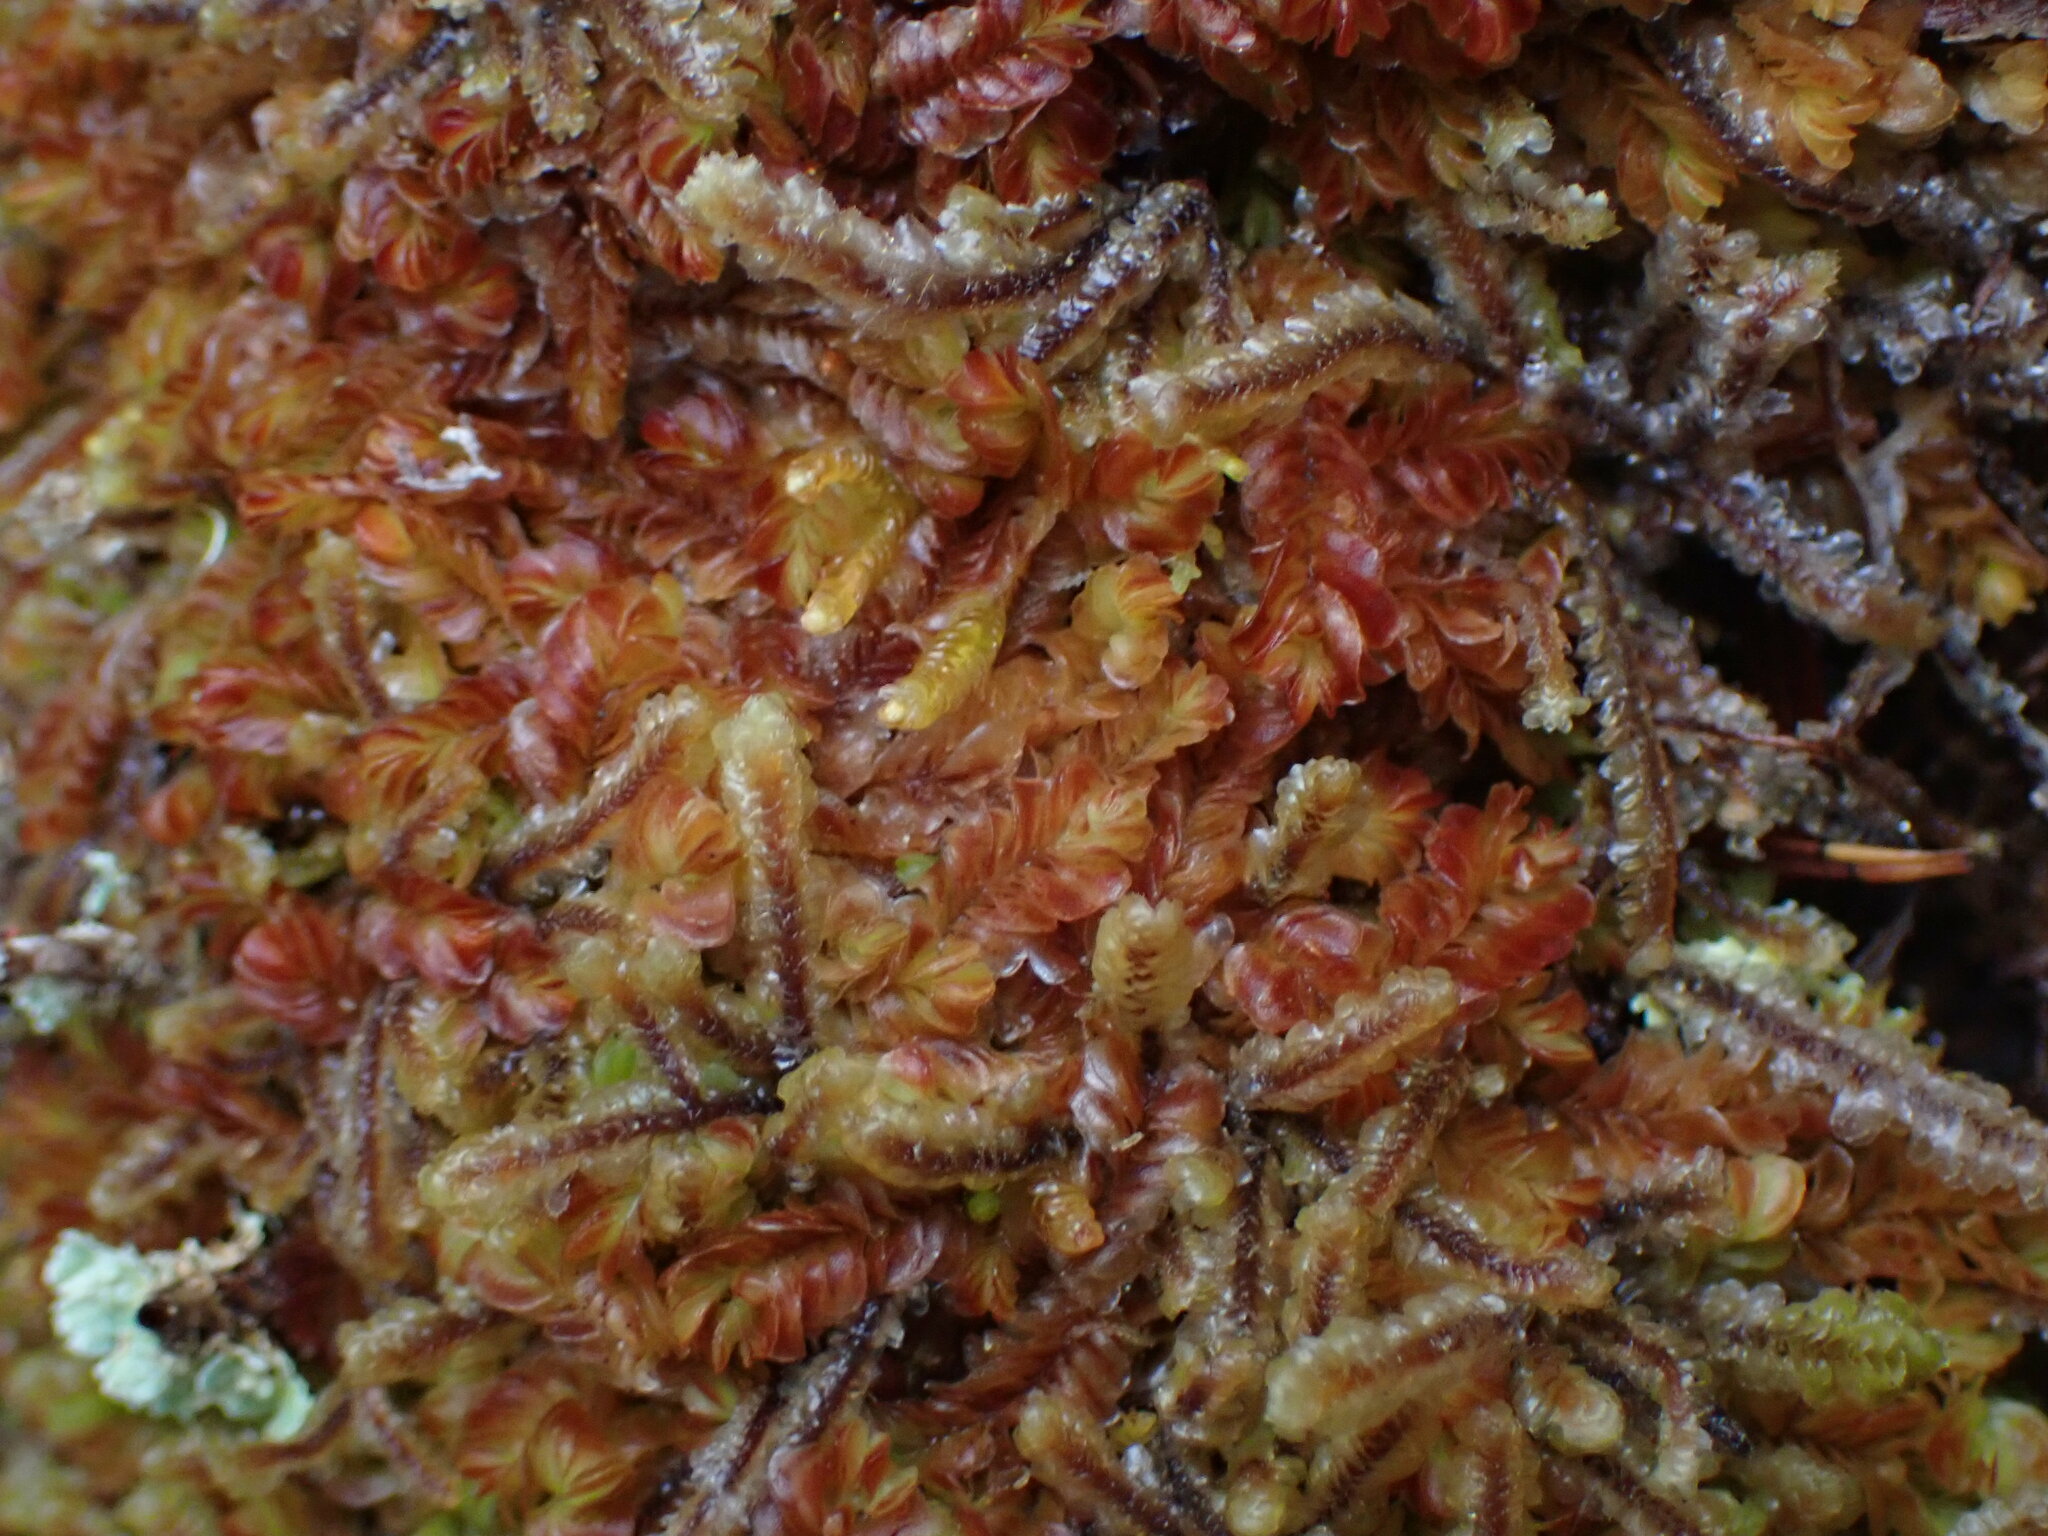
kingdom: Plantae
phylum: Marchantiophyta
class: Jungermanniopsida
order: Jungermanniales
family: Myliaceae
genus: Mylia
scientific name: Mylia taylorii
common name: Taylor s flapwort
